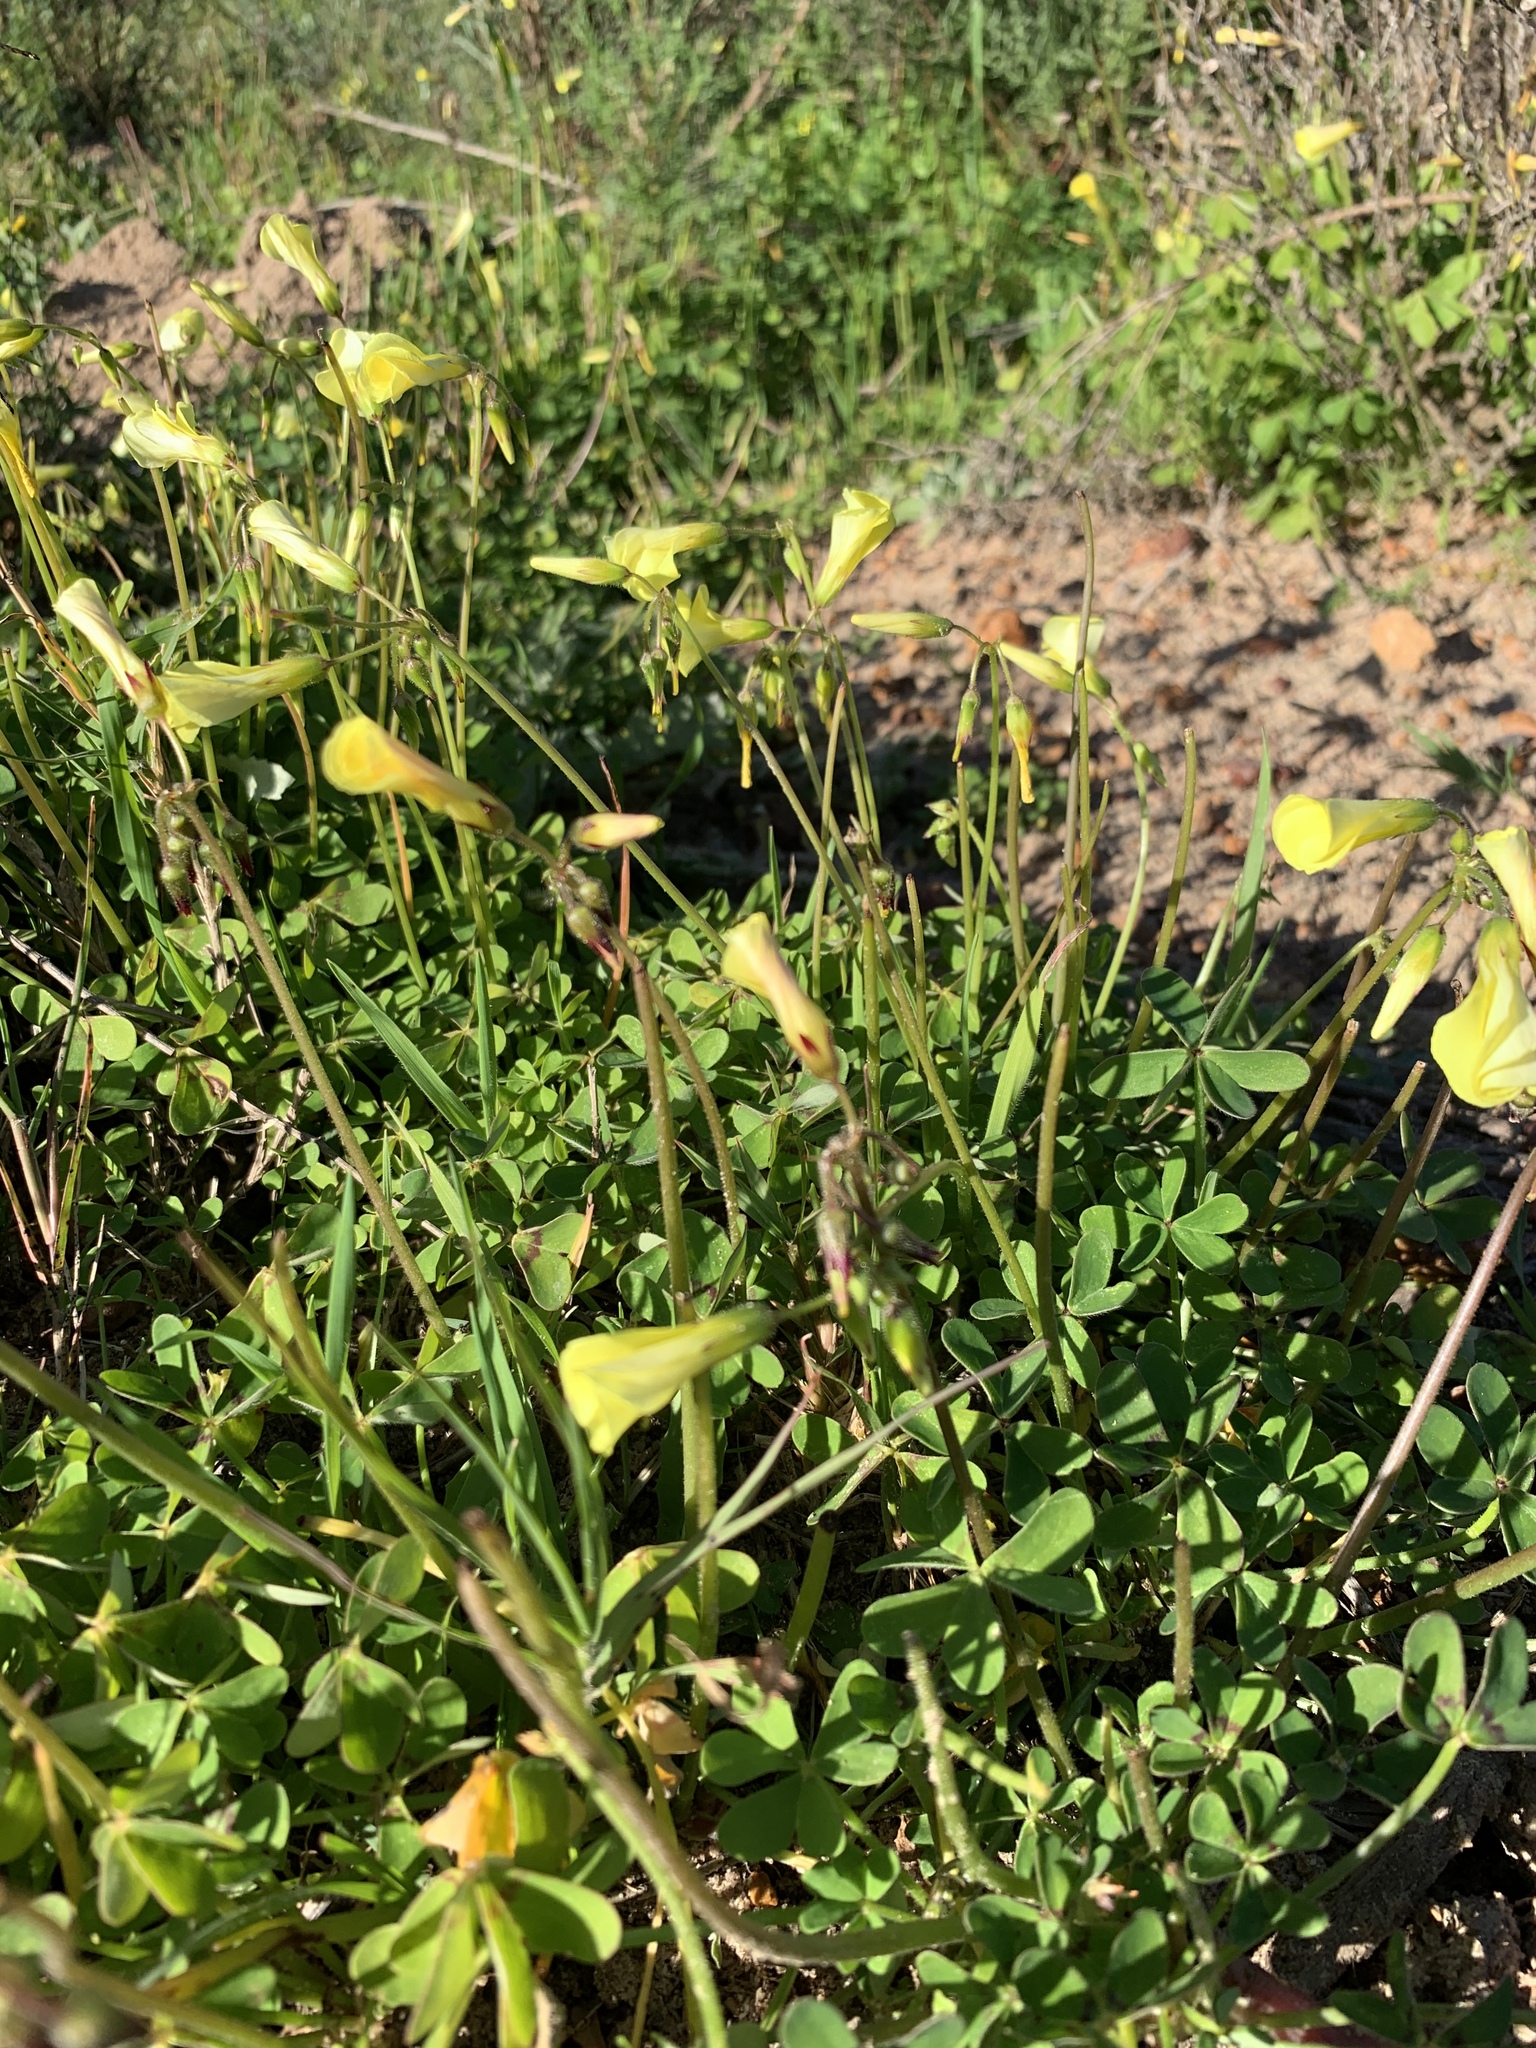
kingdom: Plantae
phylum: Tracheophyta
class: Magnoliopsida
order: Oxalidales
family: Oxalidaceae
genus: Oxalis
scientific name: Oxalis pes-caprae
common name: Bermuda-buttercup
